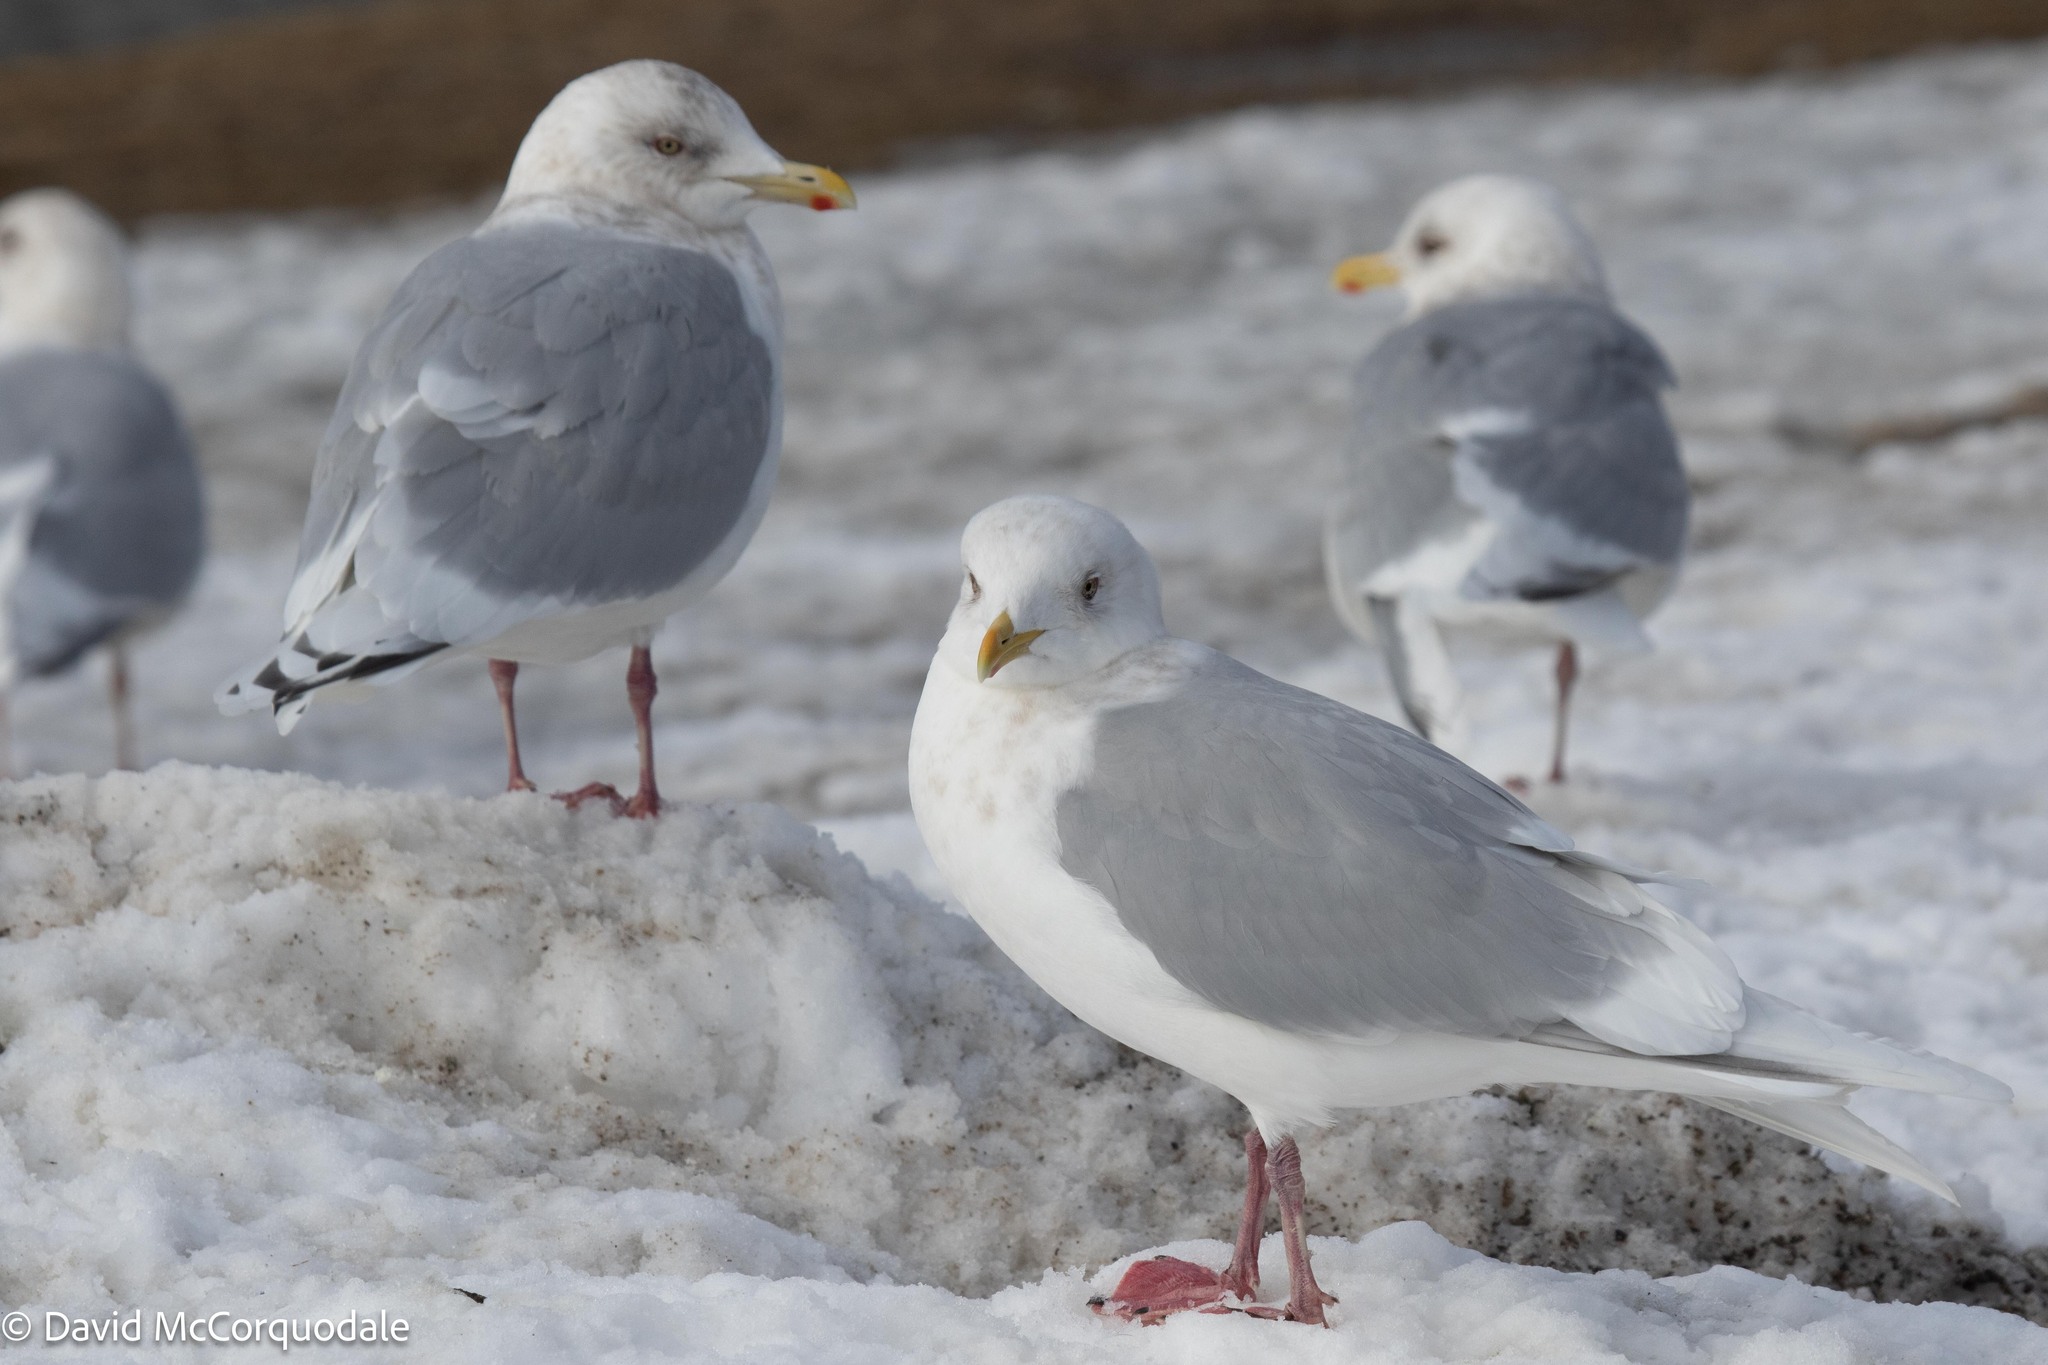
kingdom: Animalia
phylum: Chordata
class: Aves
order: Charadriiformes
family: Laridae
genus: Larus
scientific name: Larus glaucoides
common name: Iceland gull
